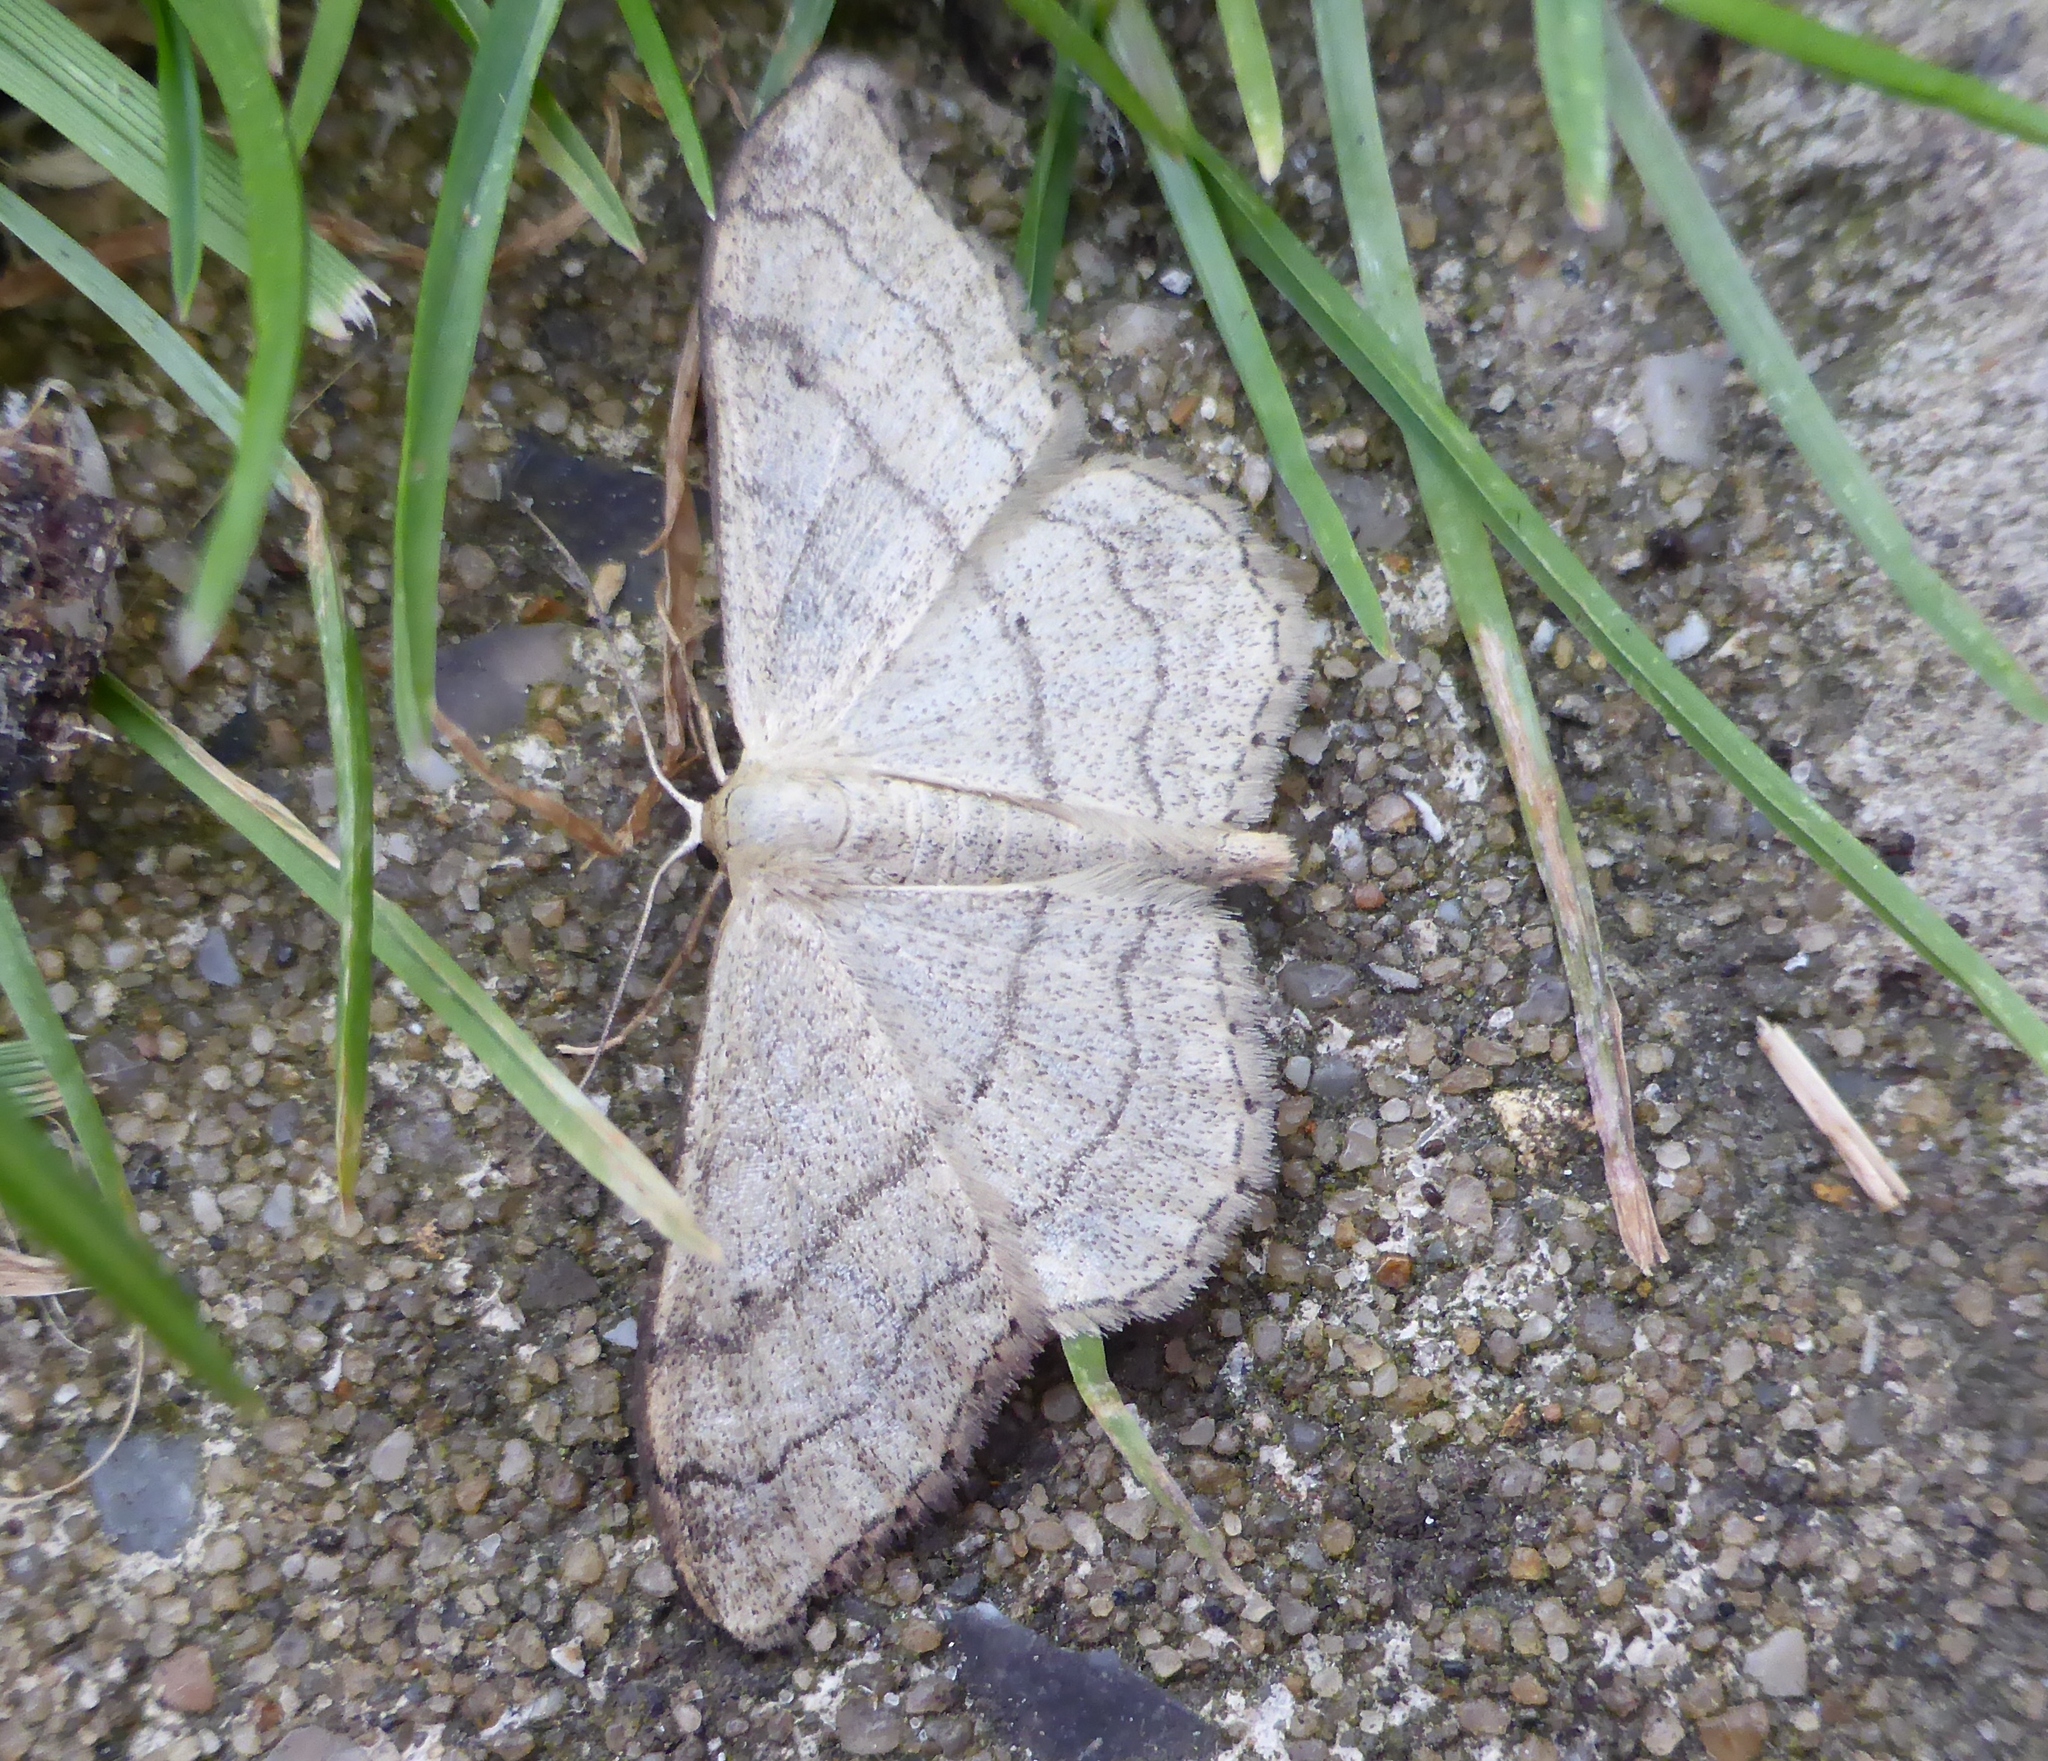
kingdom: Animalia
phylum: Arthropoda
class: Insecta
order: Lepidoptera
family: Geometridae
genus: Idaea
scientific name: Idaea aversata
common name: Riband wave
